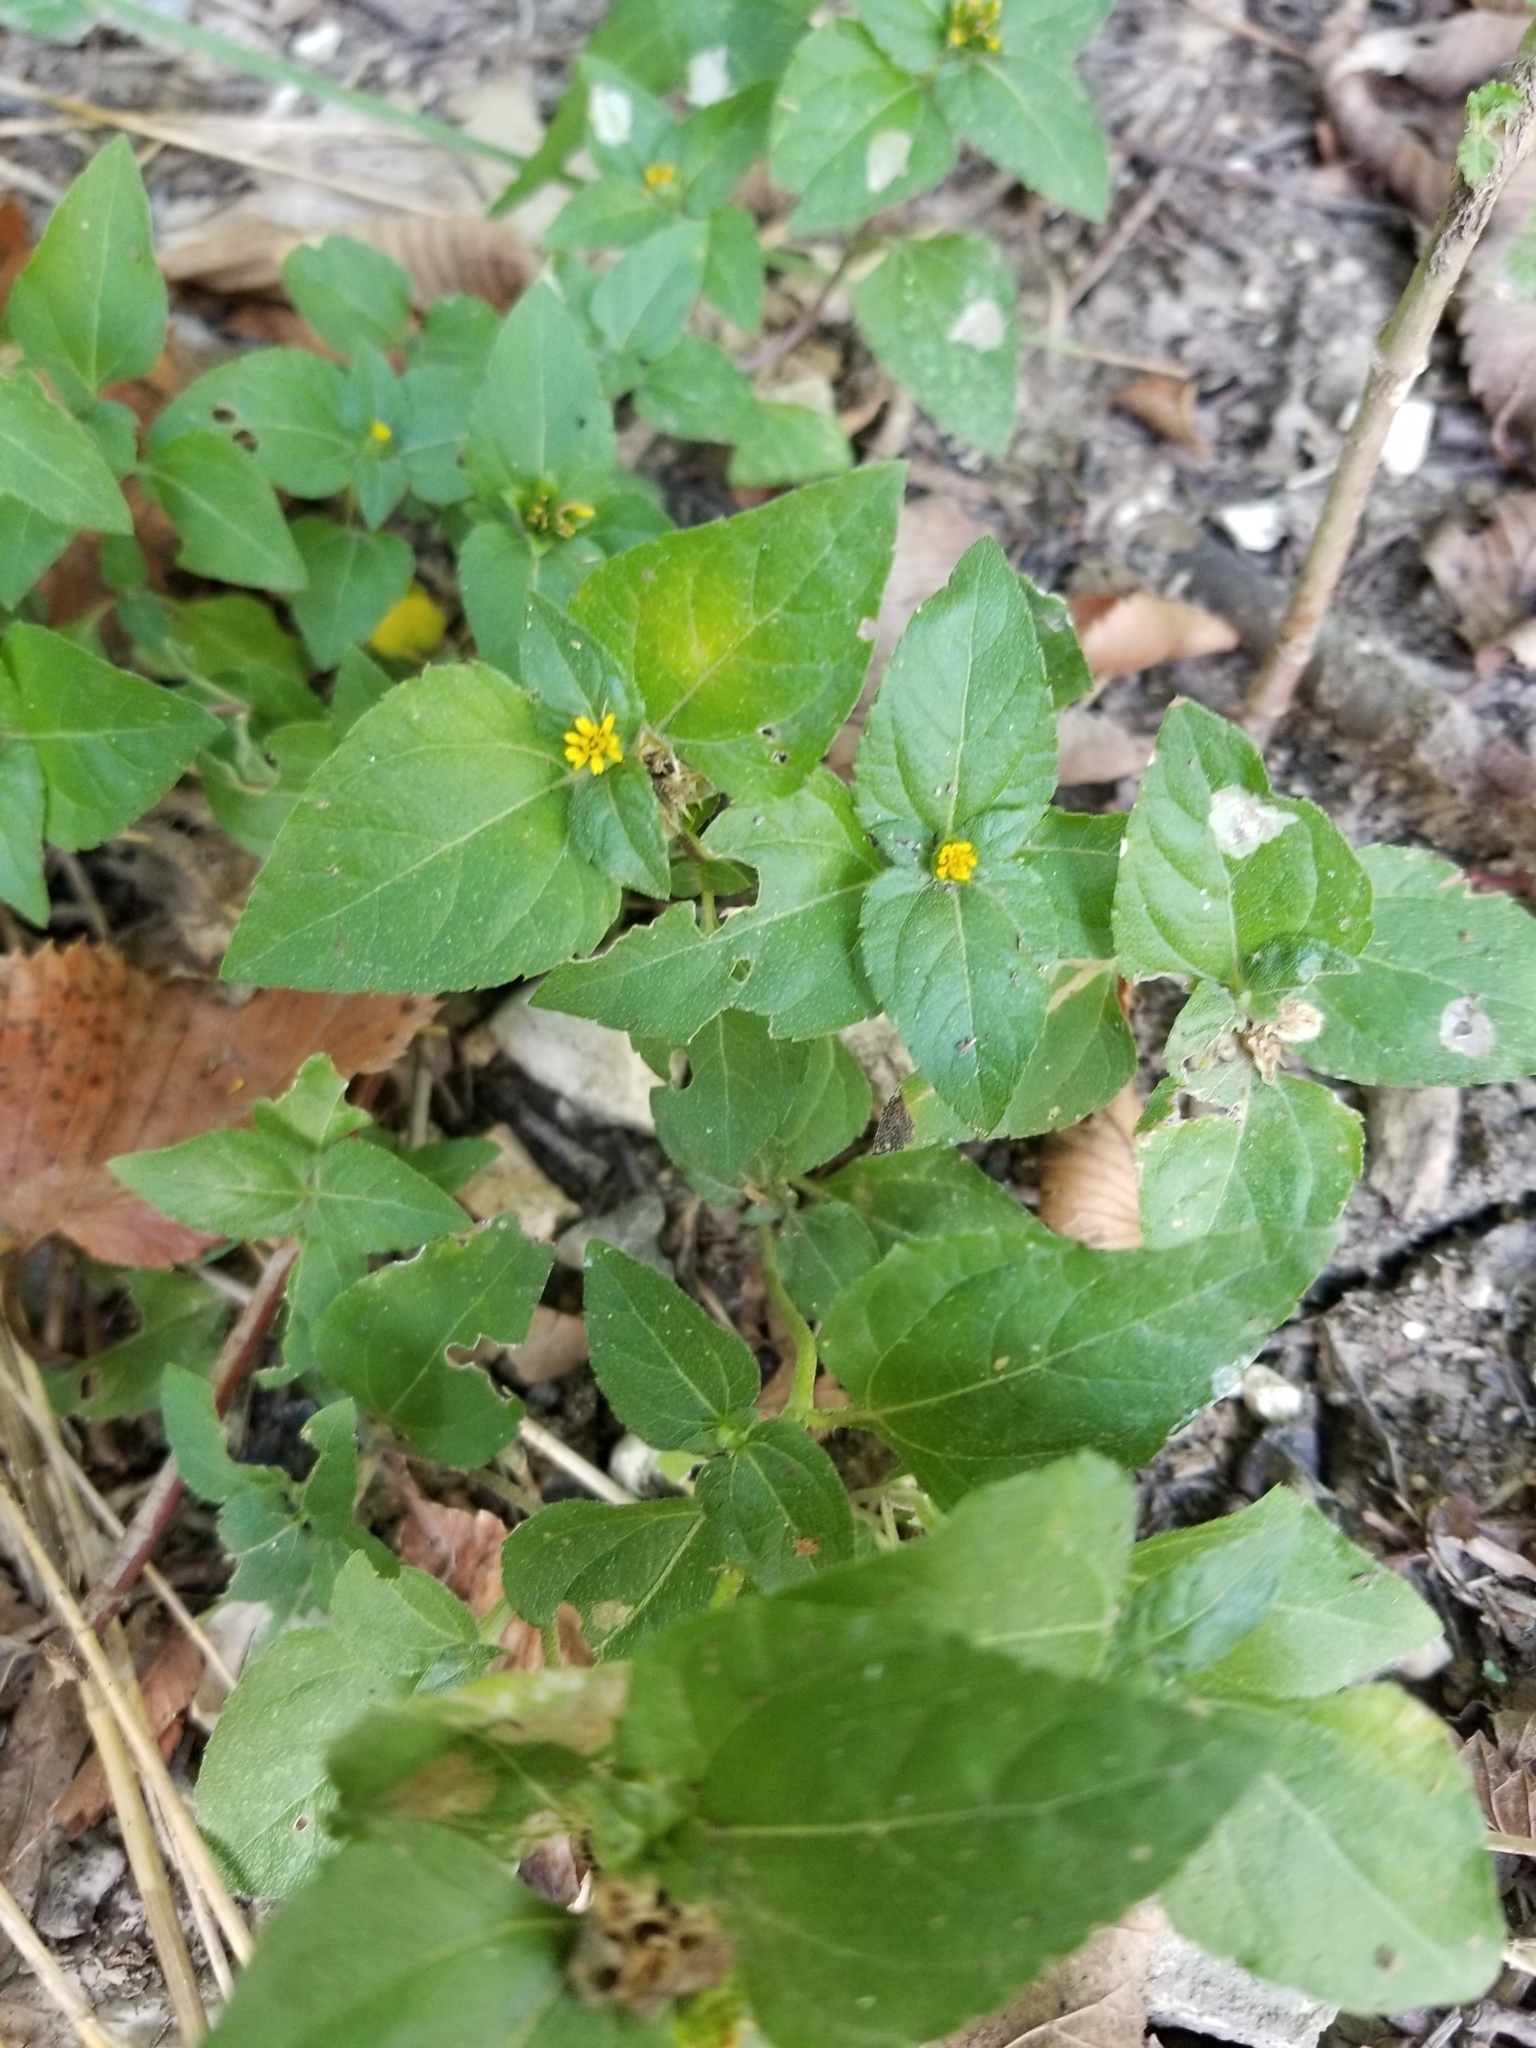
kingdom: Plantae
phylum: Tracheophyta
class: Magnoliopsida
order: Asterales
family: Asteraceae
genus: Calyptocarpus
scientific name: Calyptocarpus vialis
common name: Straggler daisy
